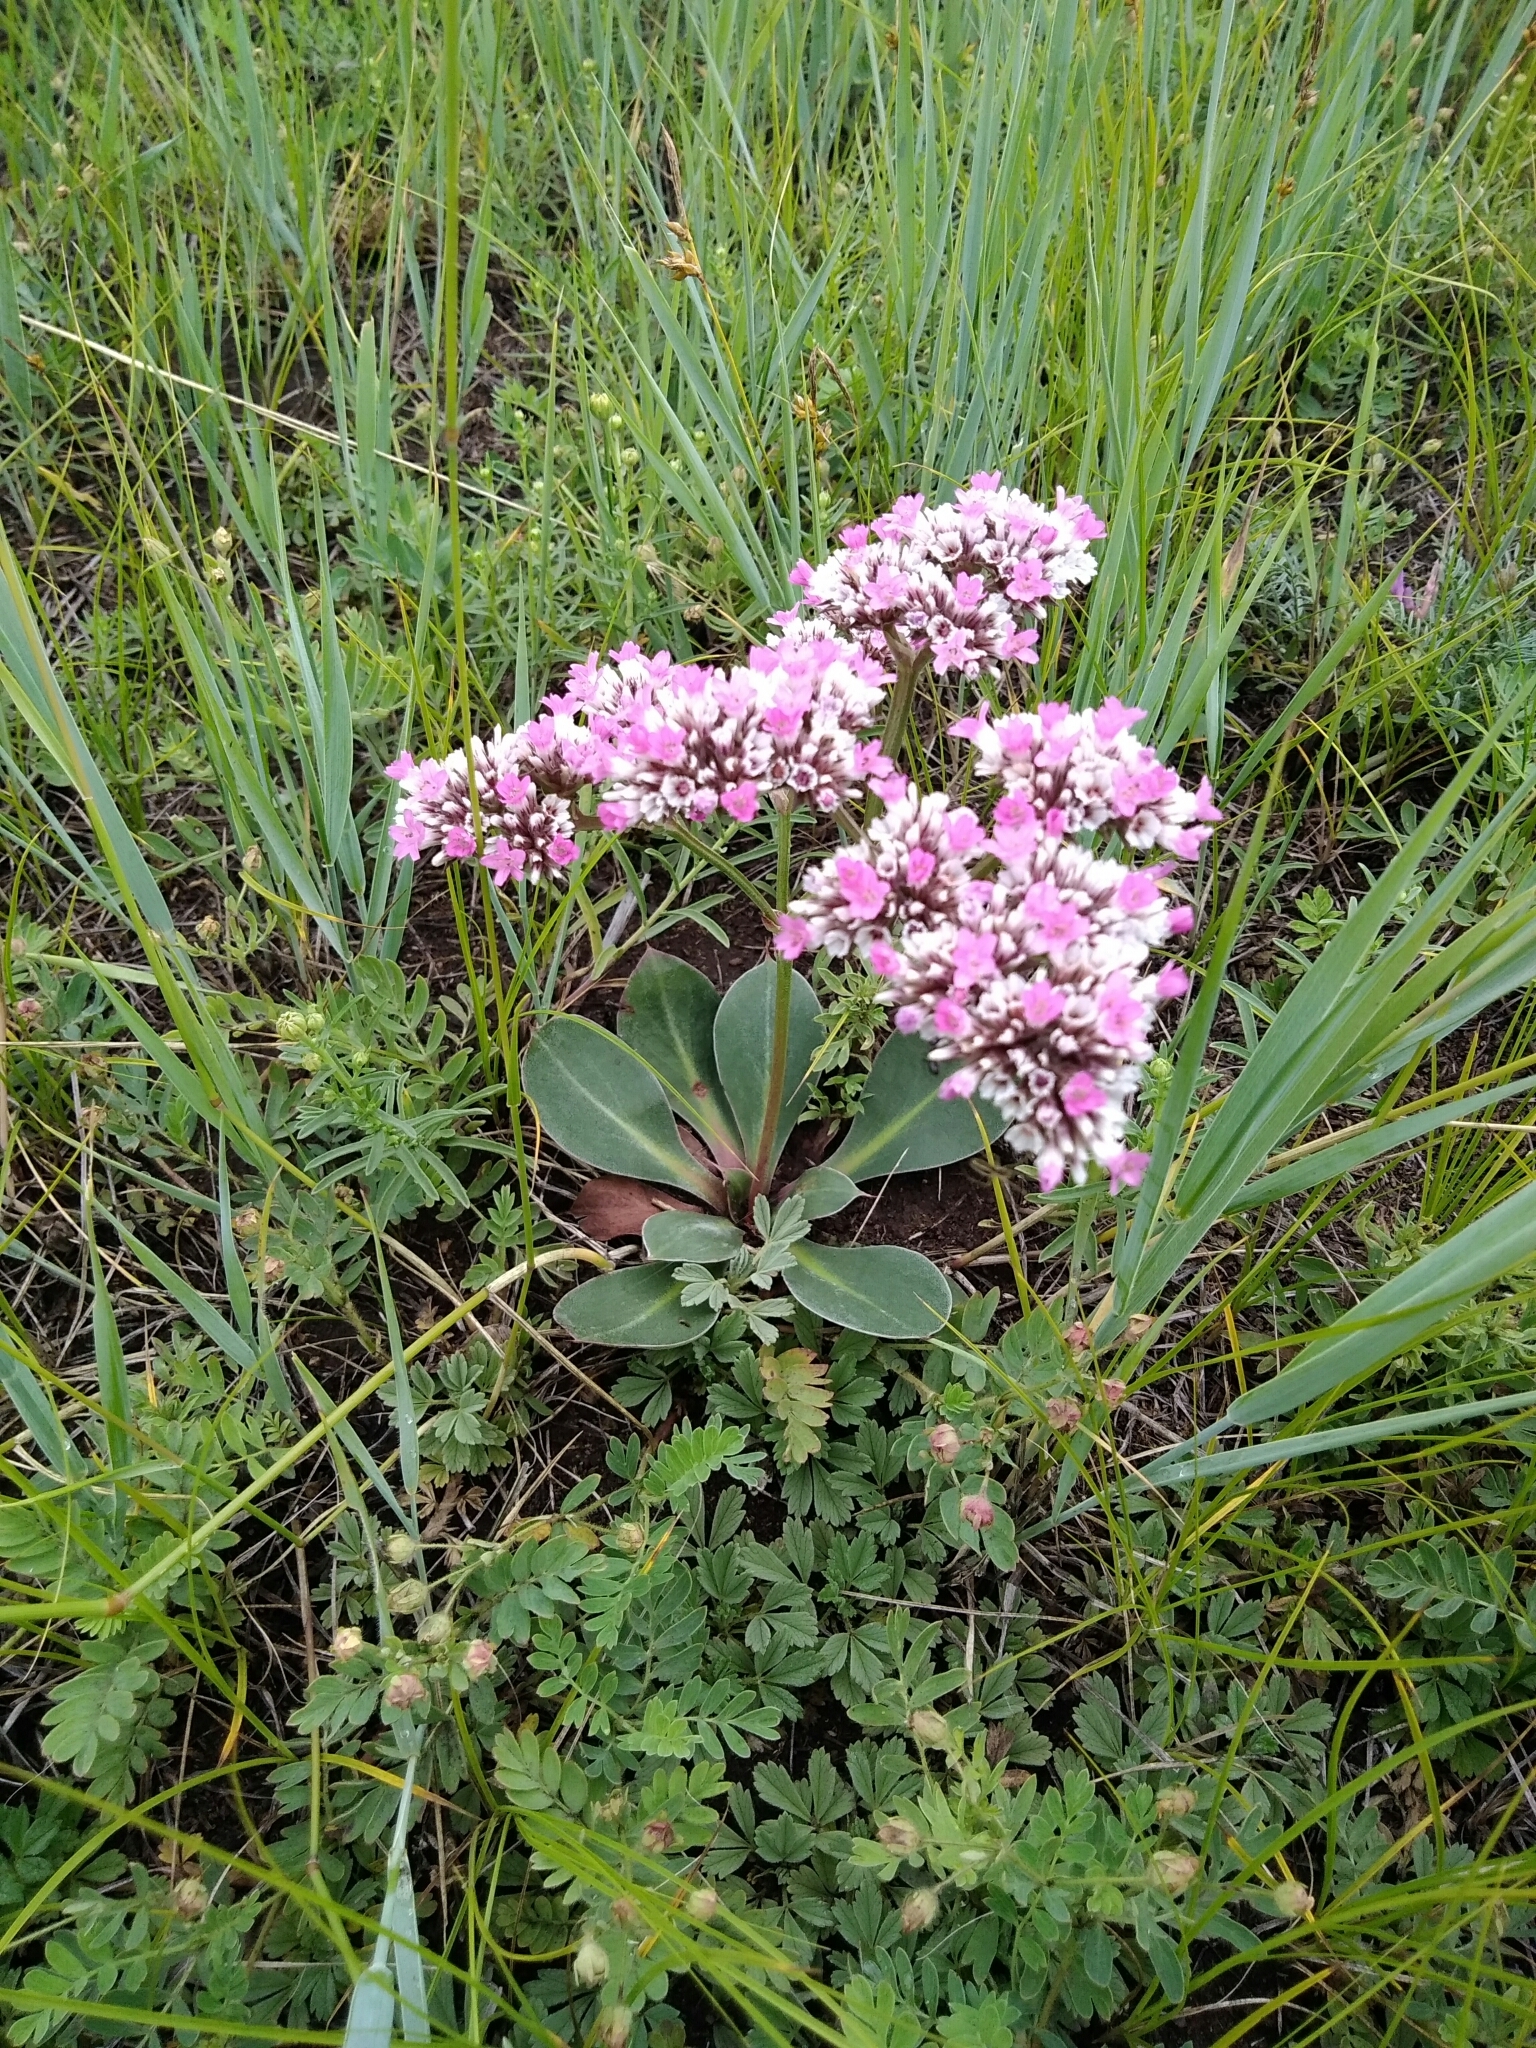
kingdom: Plantae
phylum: Tracheophyta
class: Magnoliopsida
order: Caryophyllales
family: Plumbaginaceae
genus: Goniolimon
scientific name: Goniolimon speciosum
